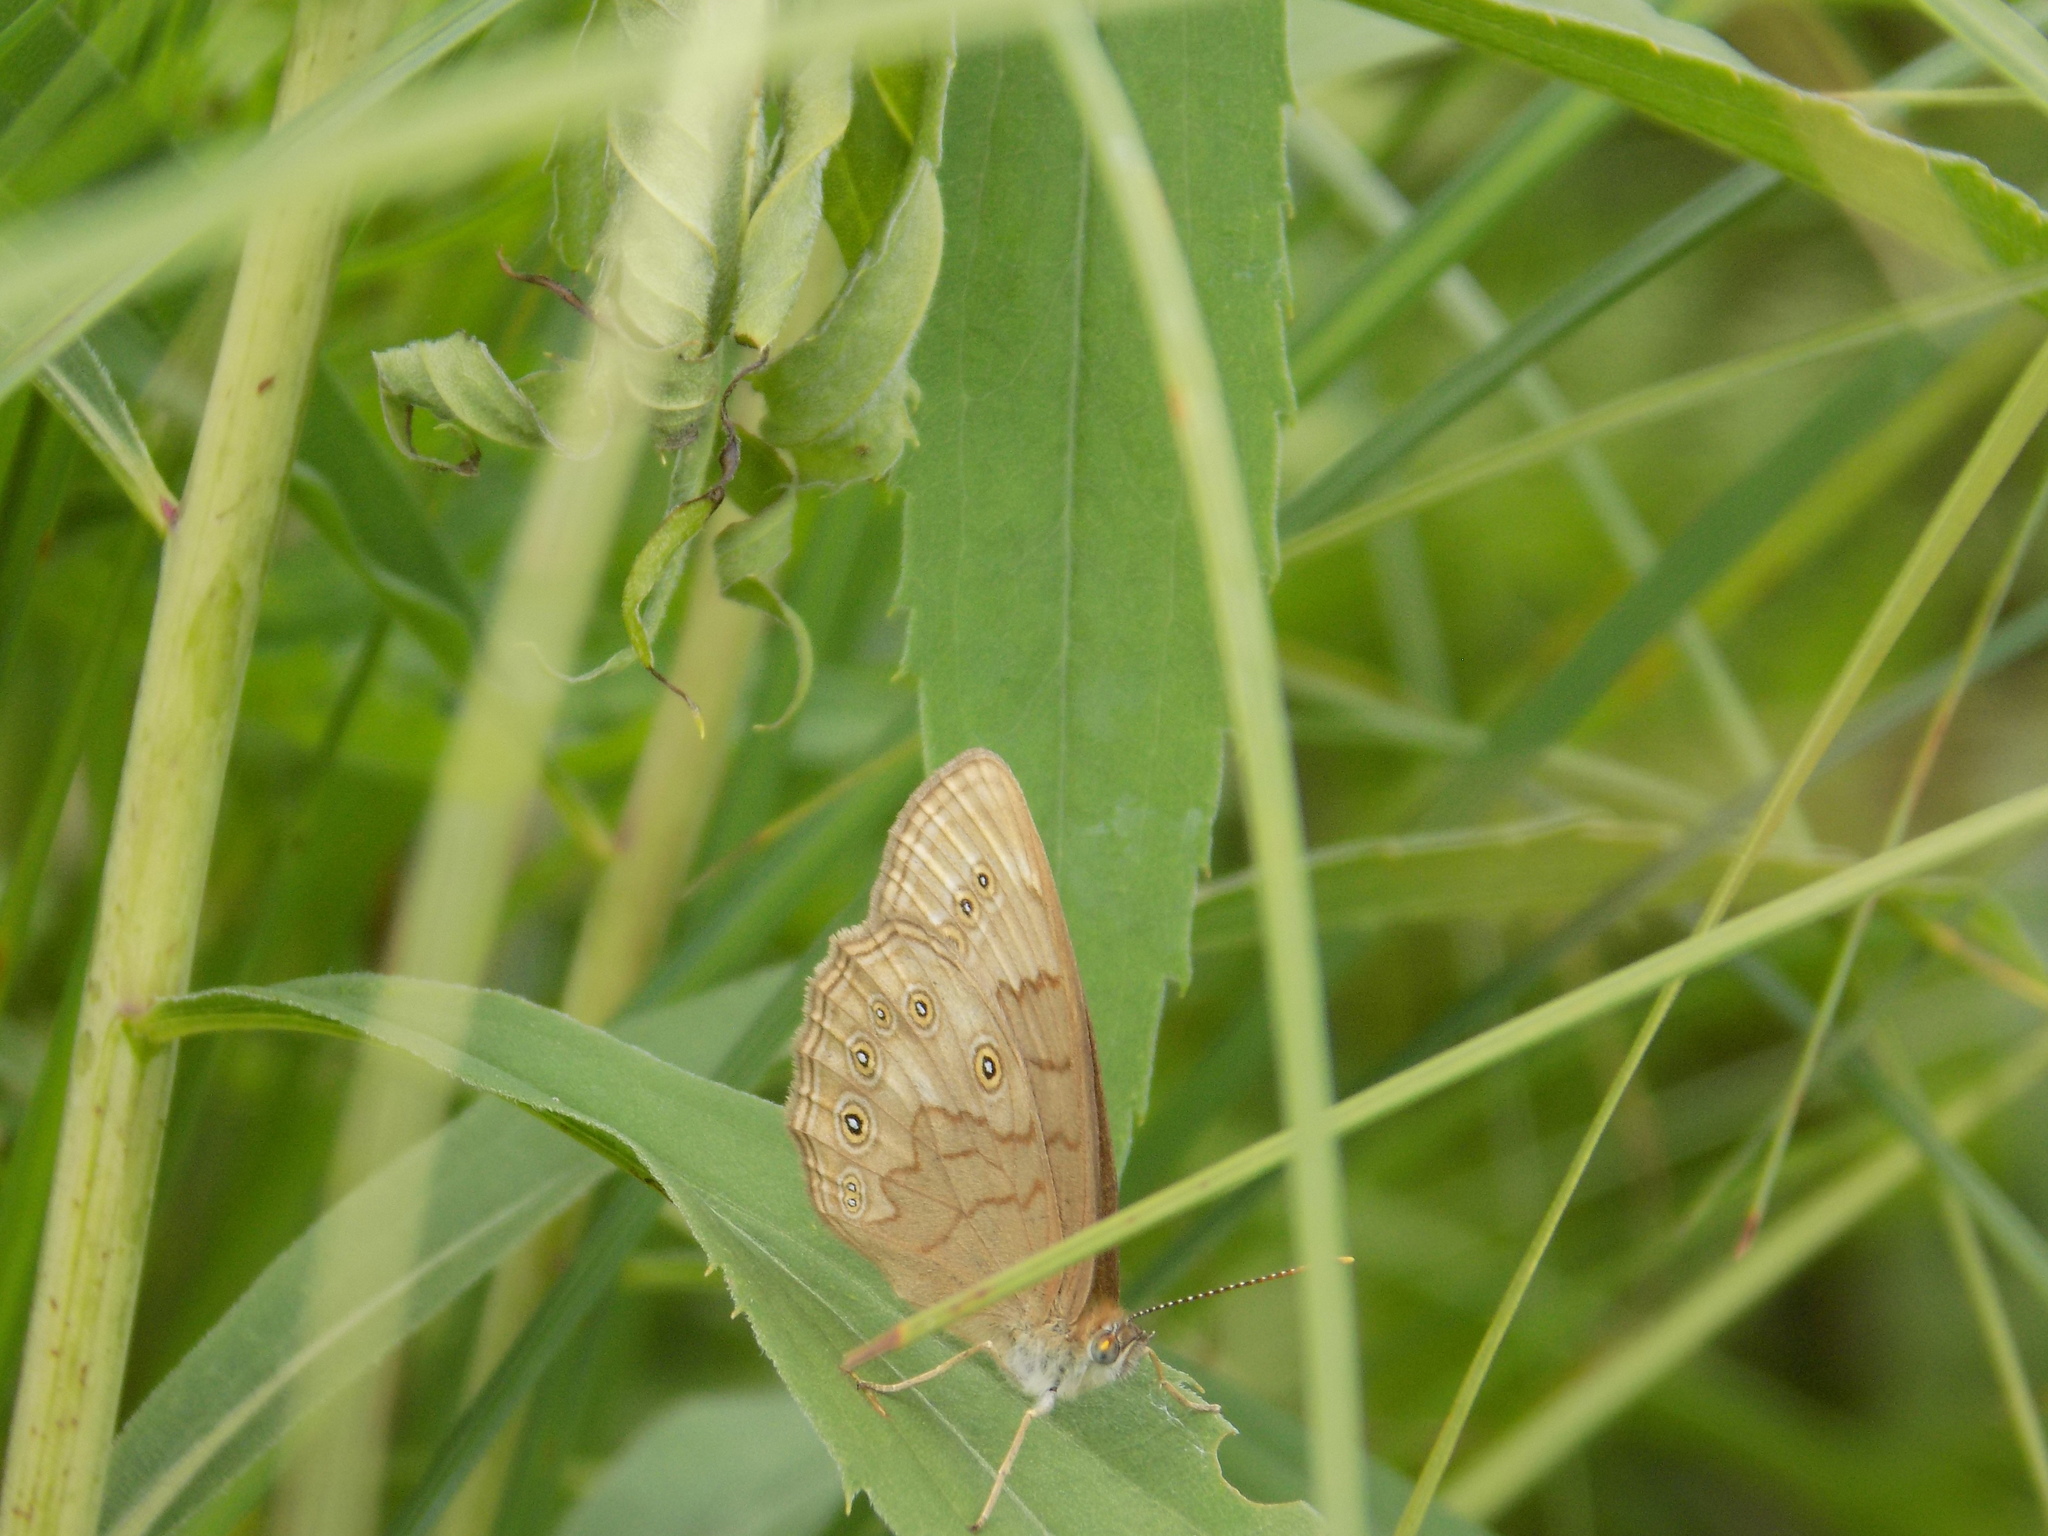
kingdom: Animalia
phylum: Arthropoda
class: Insecta
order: Lepidoptera
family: Nymphalidae
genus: Lethe
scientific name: Lethe eurydice
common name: Eyed brown
